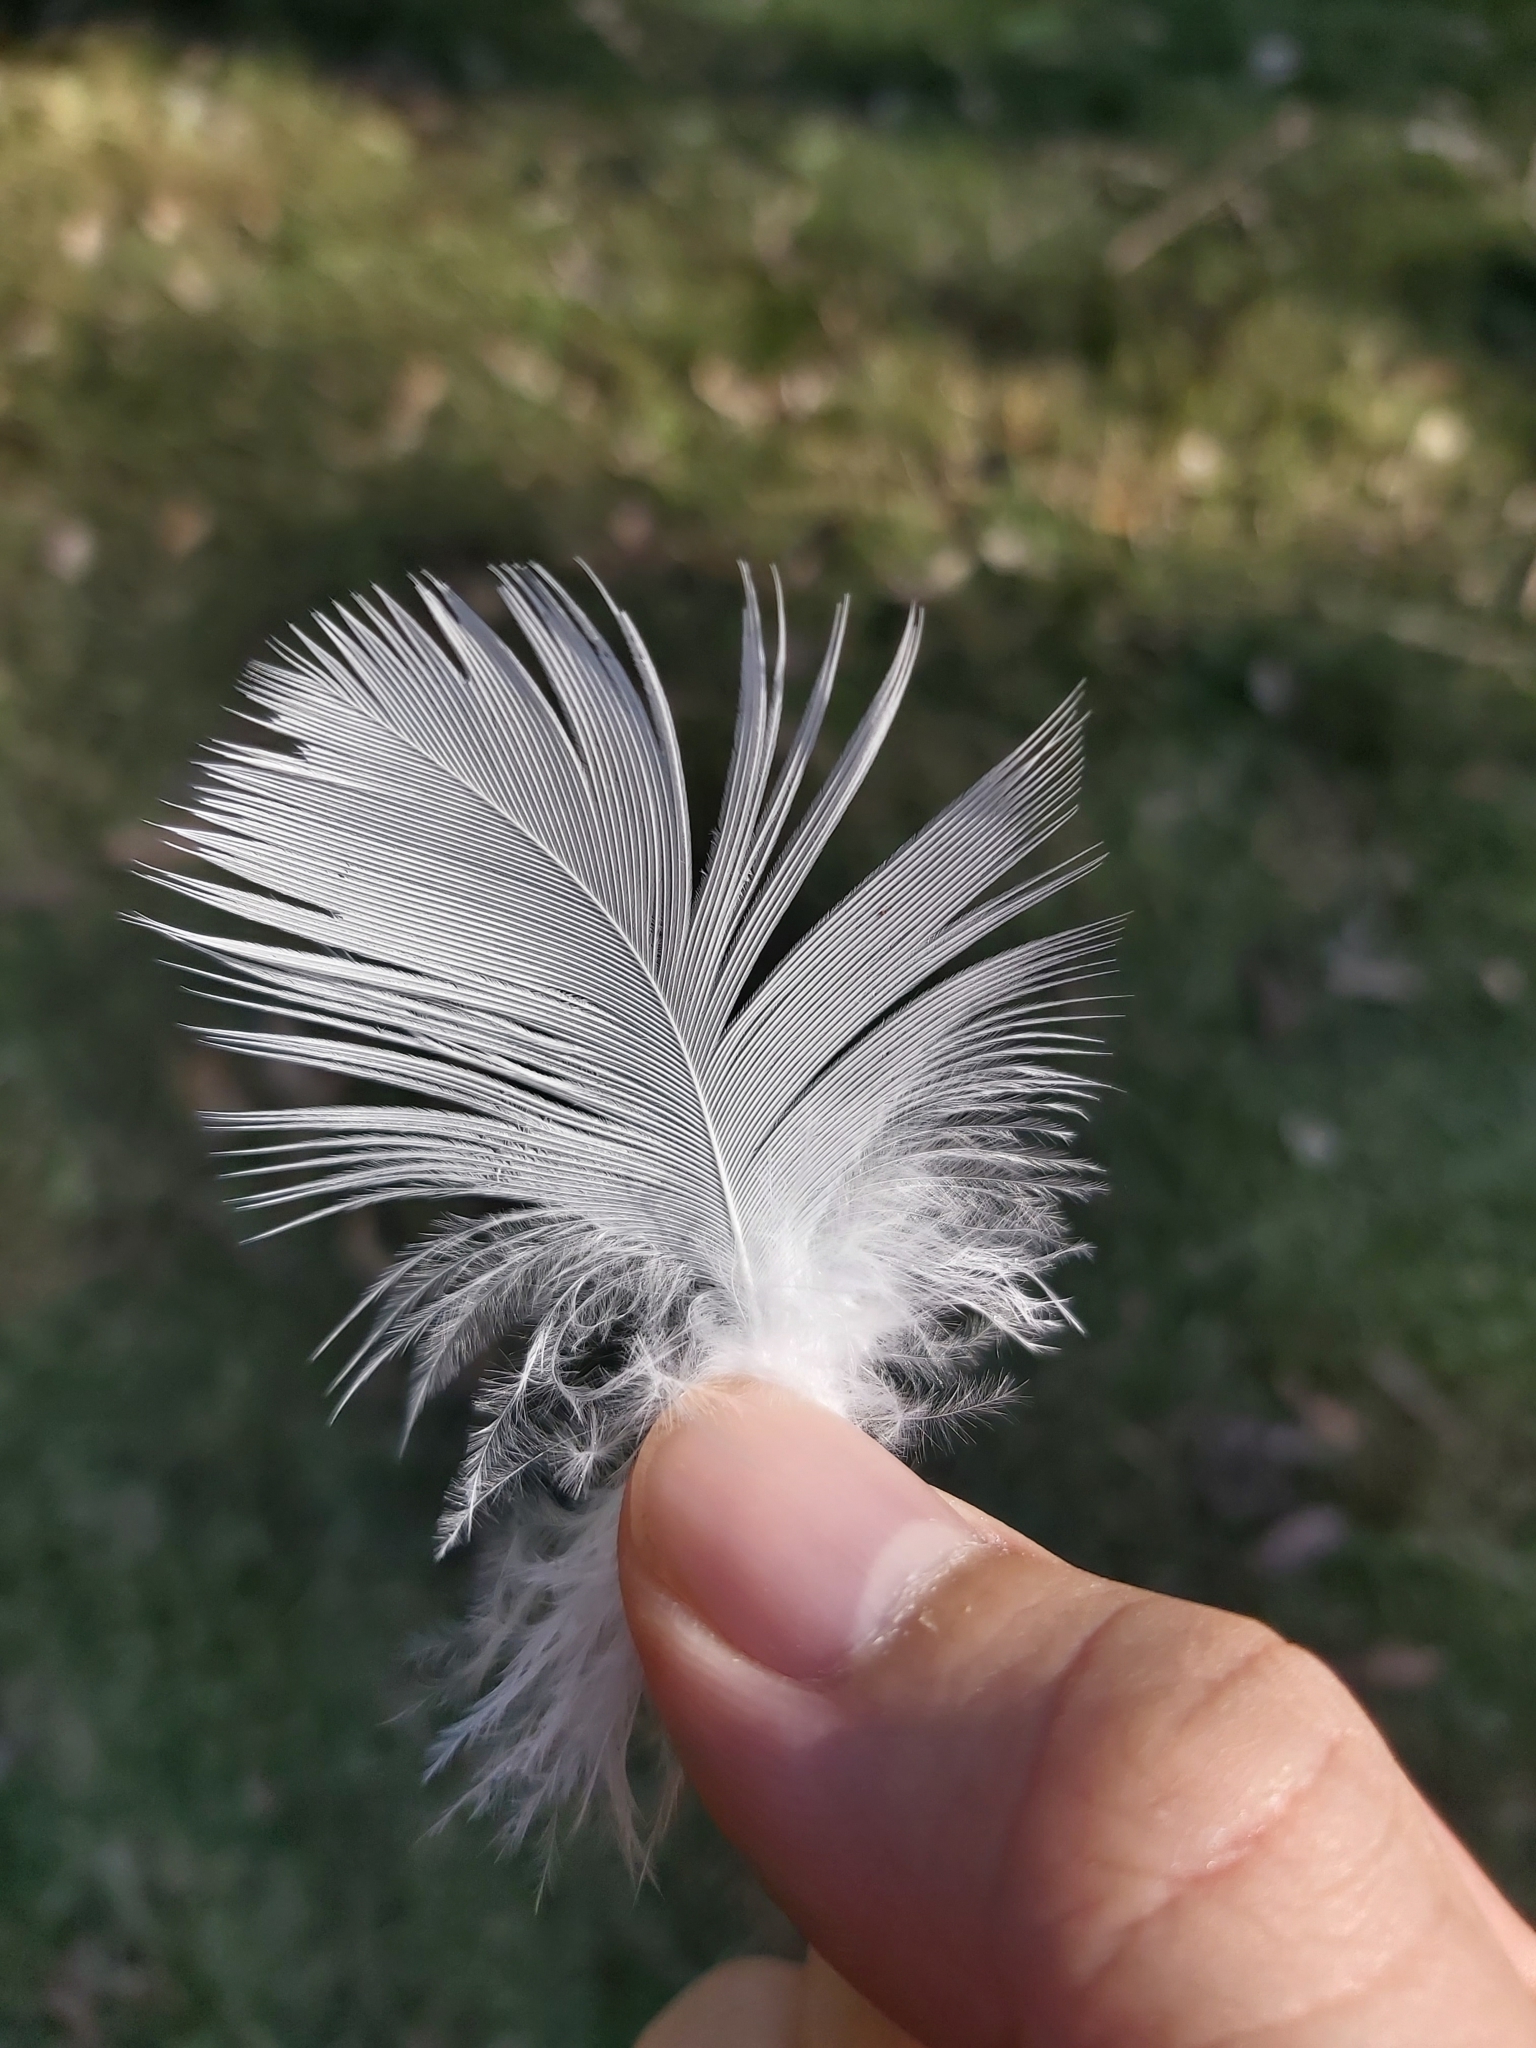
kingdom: Animalia
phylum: Chordata
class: Aves
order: Psittaciformes
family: Psittacidae
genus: Cacatua
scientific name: Cacatua galerita
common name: Sulphur-crested cockatoo
